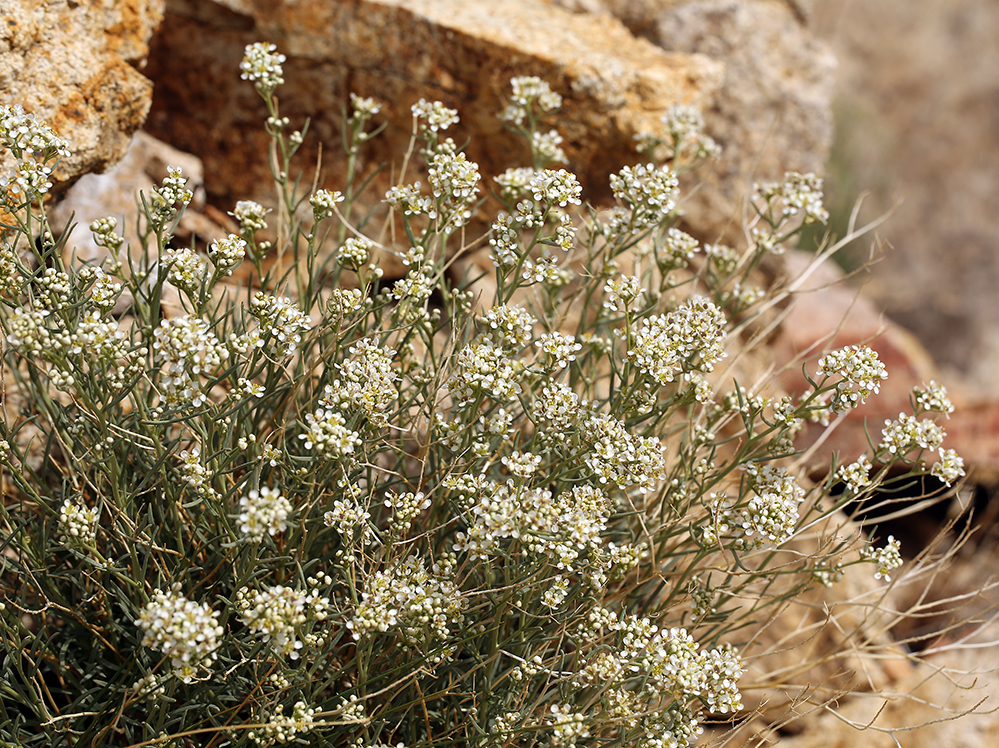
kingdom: Plantae
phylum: Tracheophyta
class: Magnoliopsida
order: Brassicales
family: Brassicaceae
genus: Lepidium
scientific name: Lepidium fremontii
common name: Fremont's pepperwort
